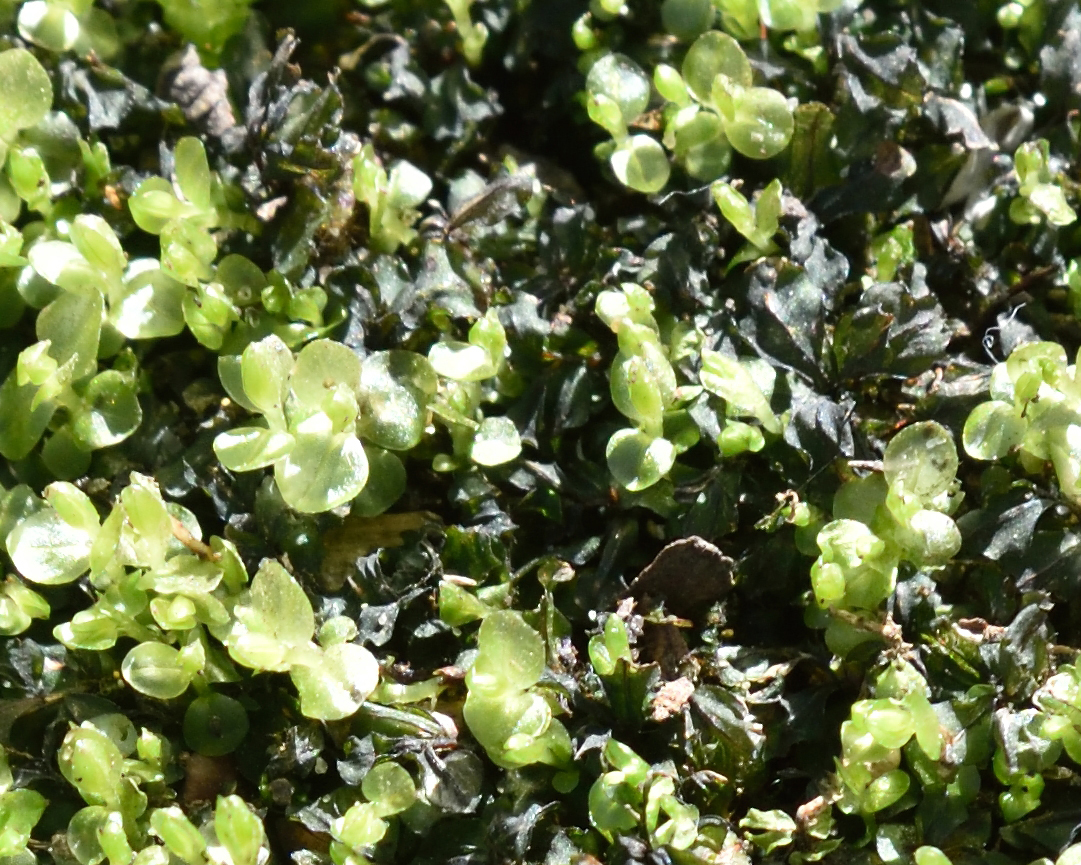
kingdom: Plantae
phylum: Bryophyta
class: Bryopsida
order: Bryales
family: Mniaceae
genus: Rhizomnium
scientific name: Rhizomnium punctatum
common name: Dotted leafy moss
